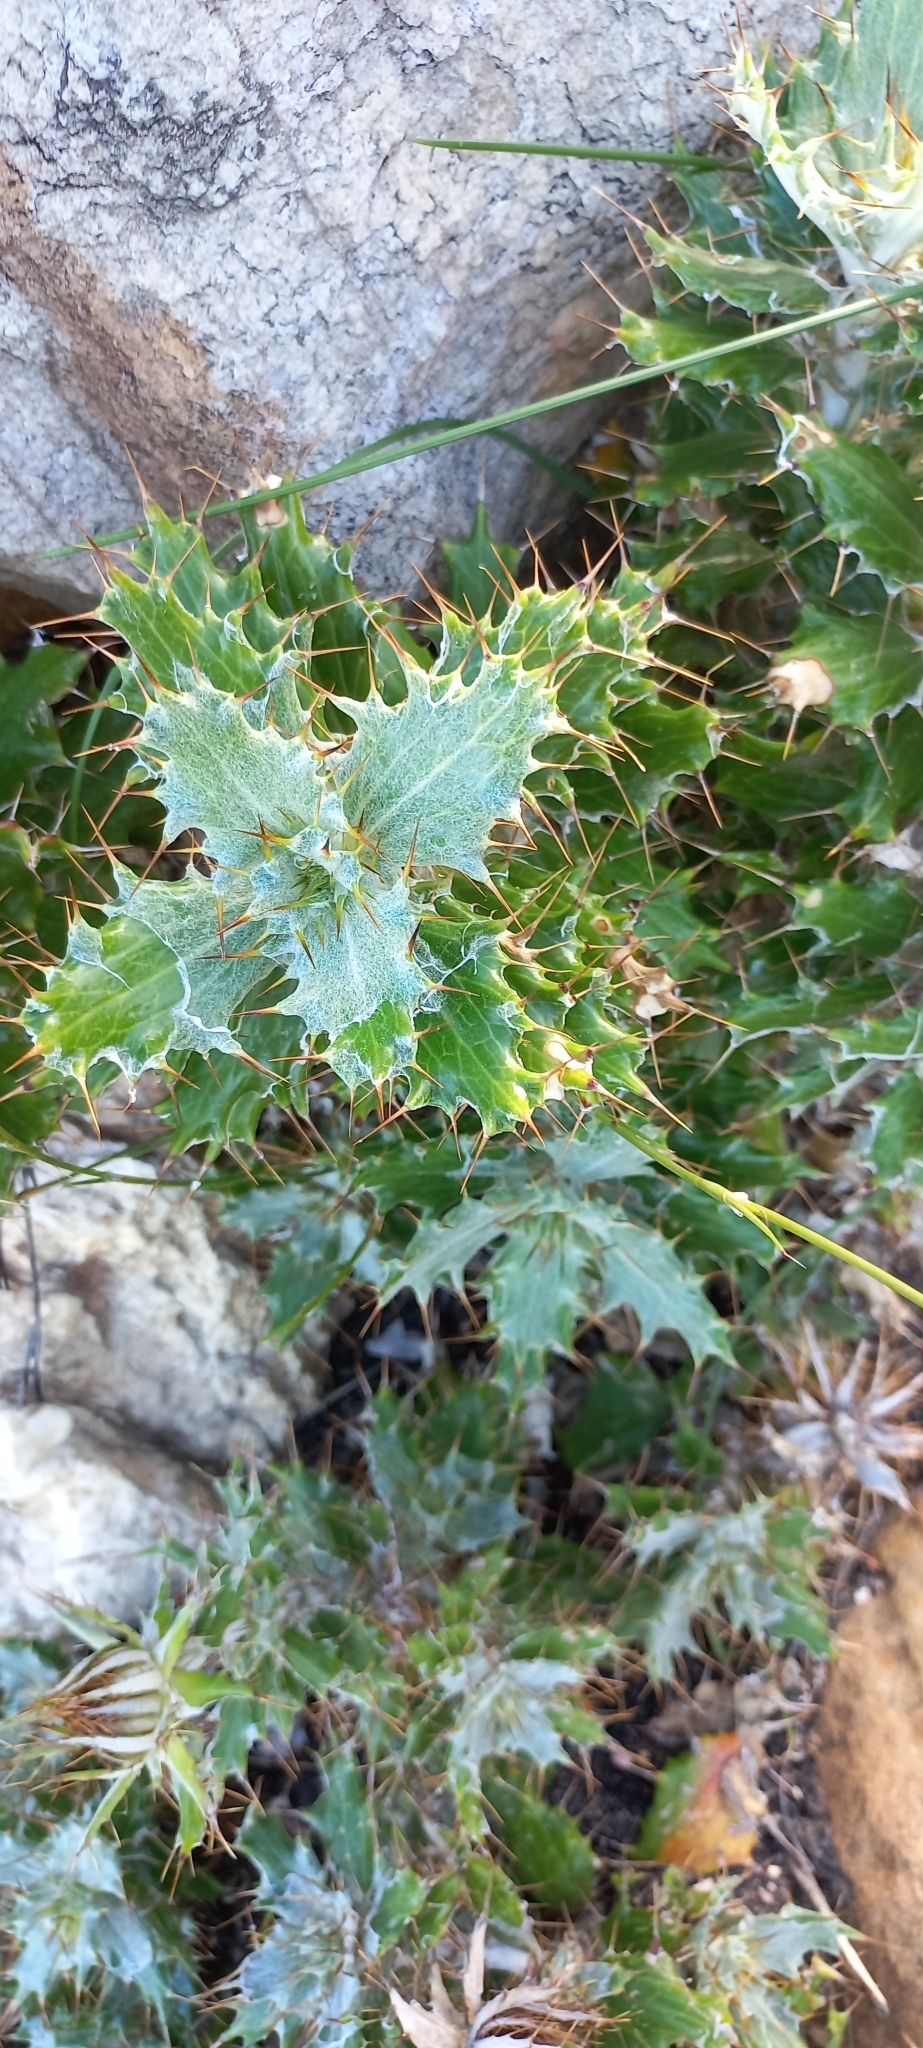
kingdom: Plantae
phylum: Tracheophyta
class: Magnoliopsida
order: Asterales
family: Asteraceae
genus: Berkheya
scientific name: Berkheya barbata
